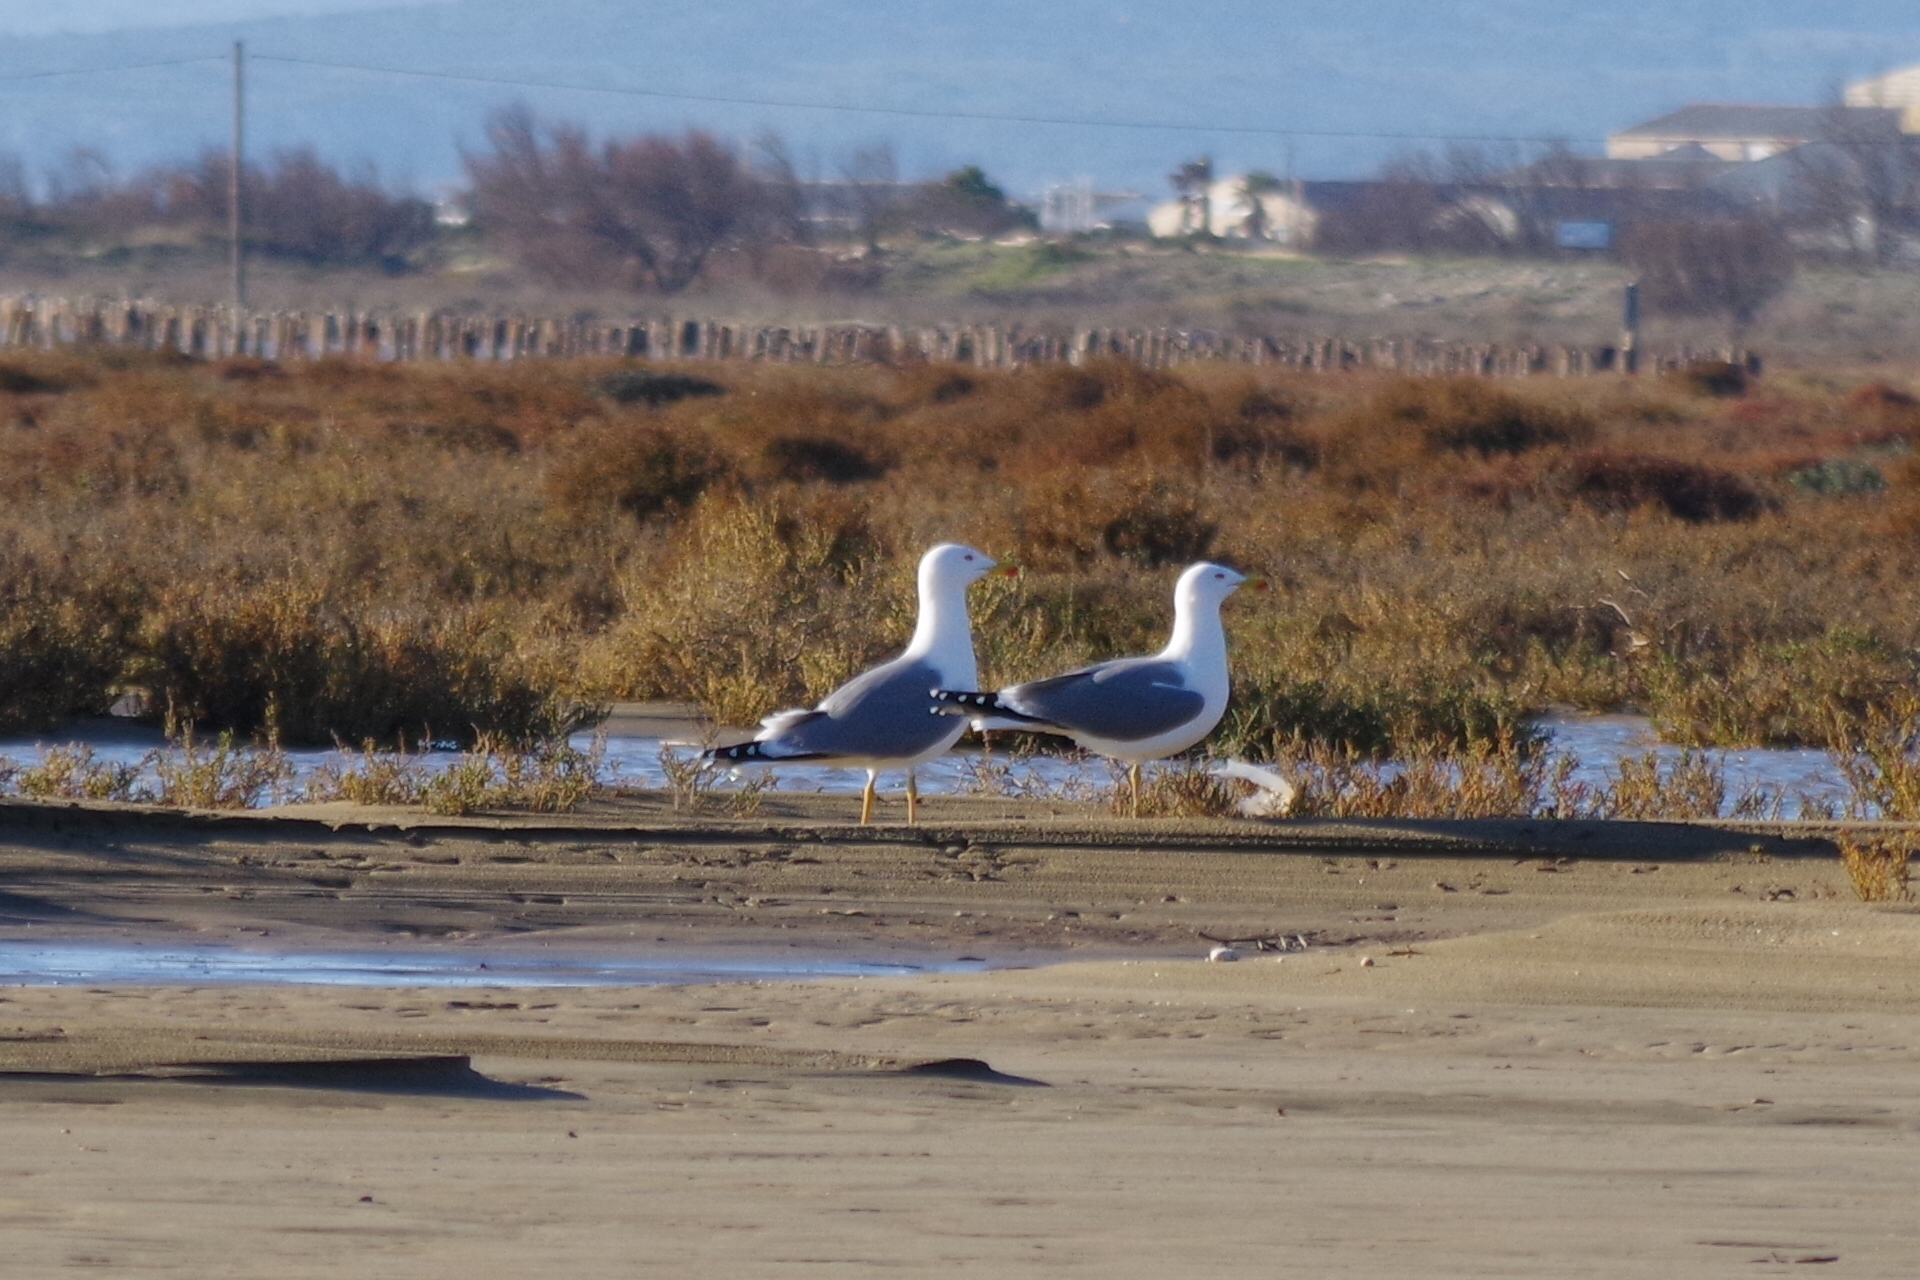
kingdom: Animalia
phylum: Chordata
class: Aves
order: Charadriiformes
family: Laridae
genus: Larus
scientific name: Larus michahellis
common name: Yellow-legged gull
